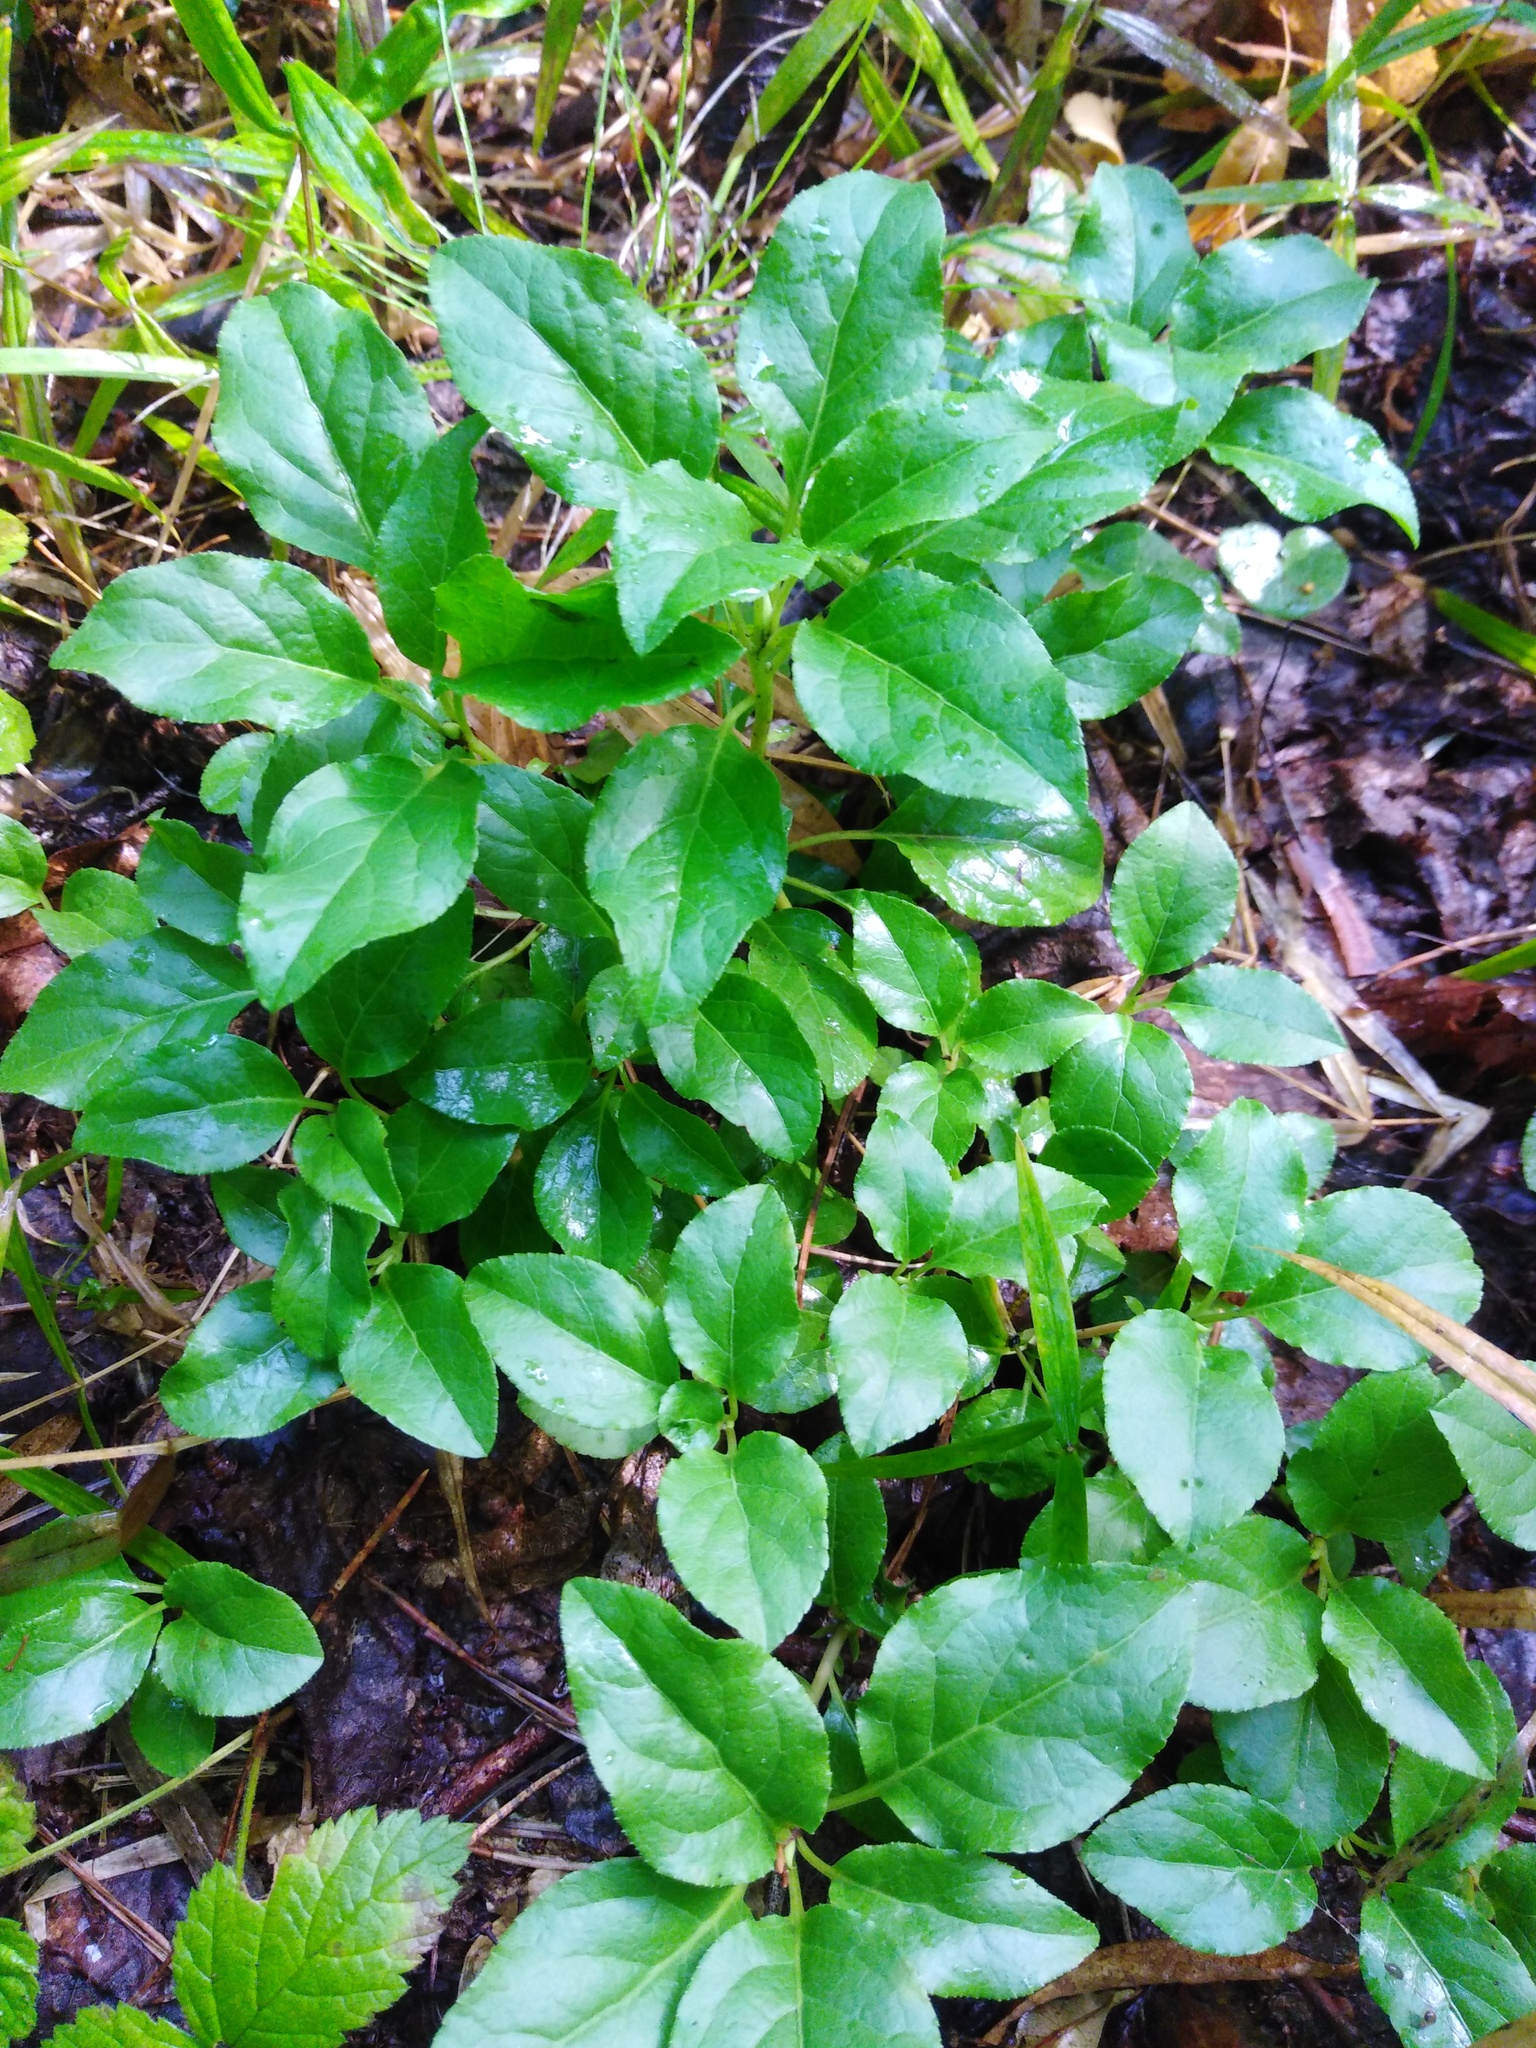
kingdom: Plantae
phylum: Tracheophyta
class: Magnoliopsida
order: Ericales
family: Ericaceae
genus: Orthilia
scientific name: Orthilia secunda
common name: One-sided orthilia
